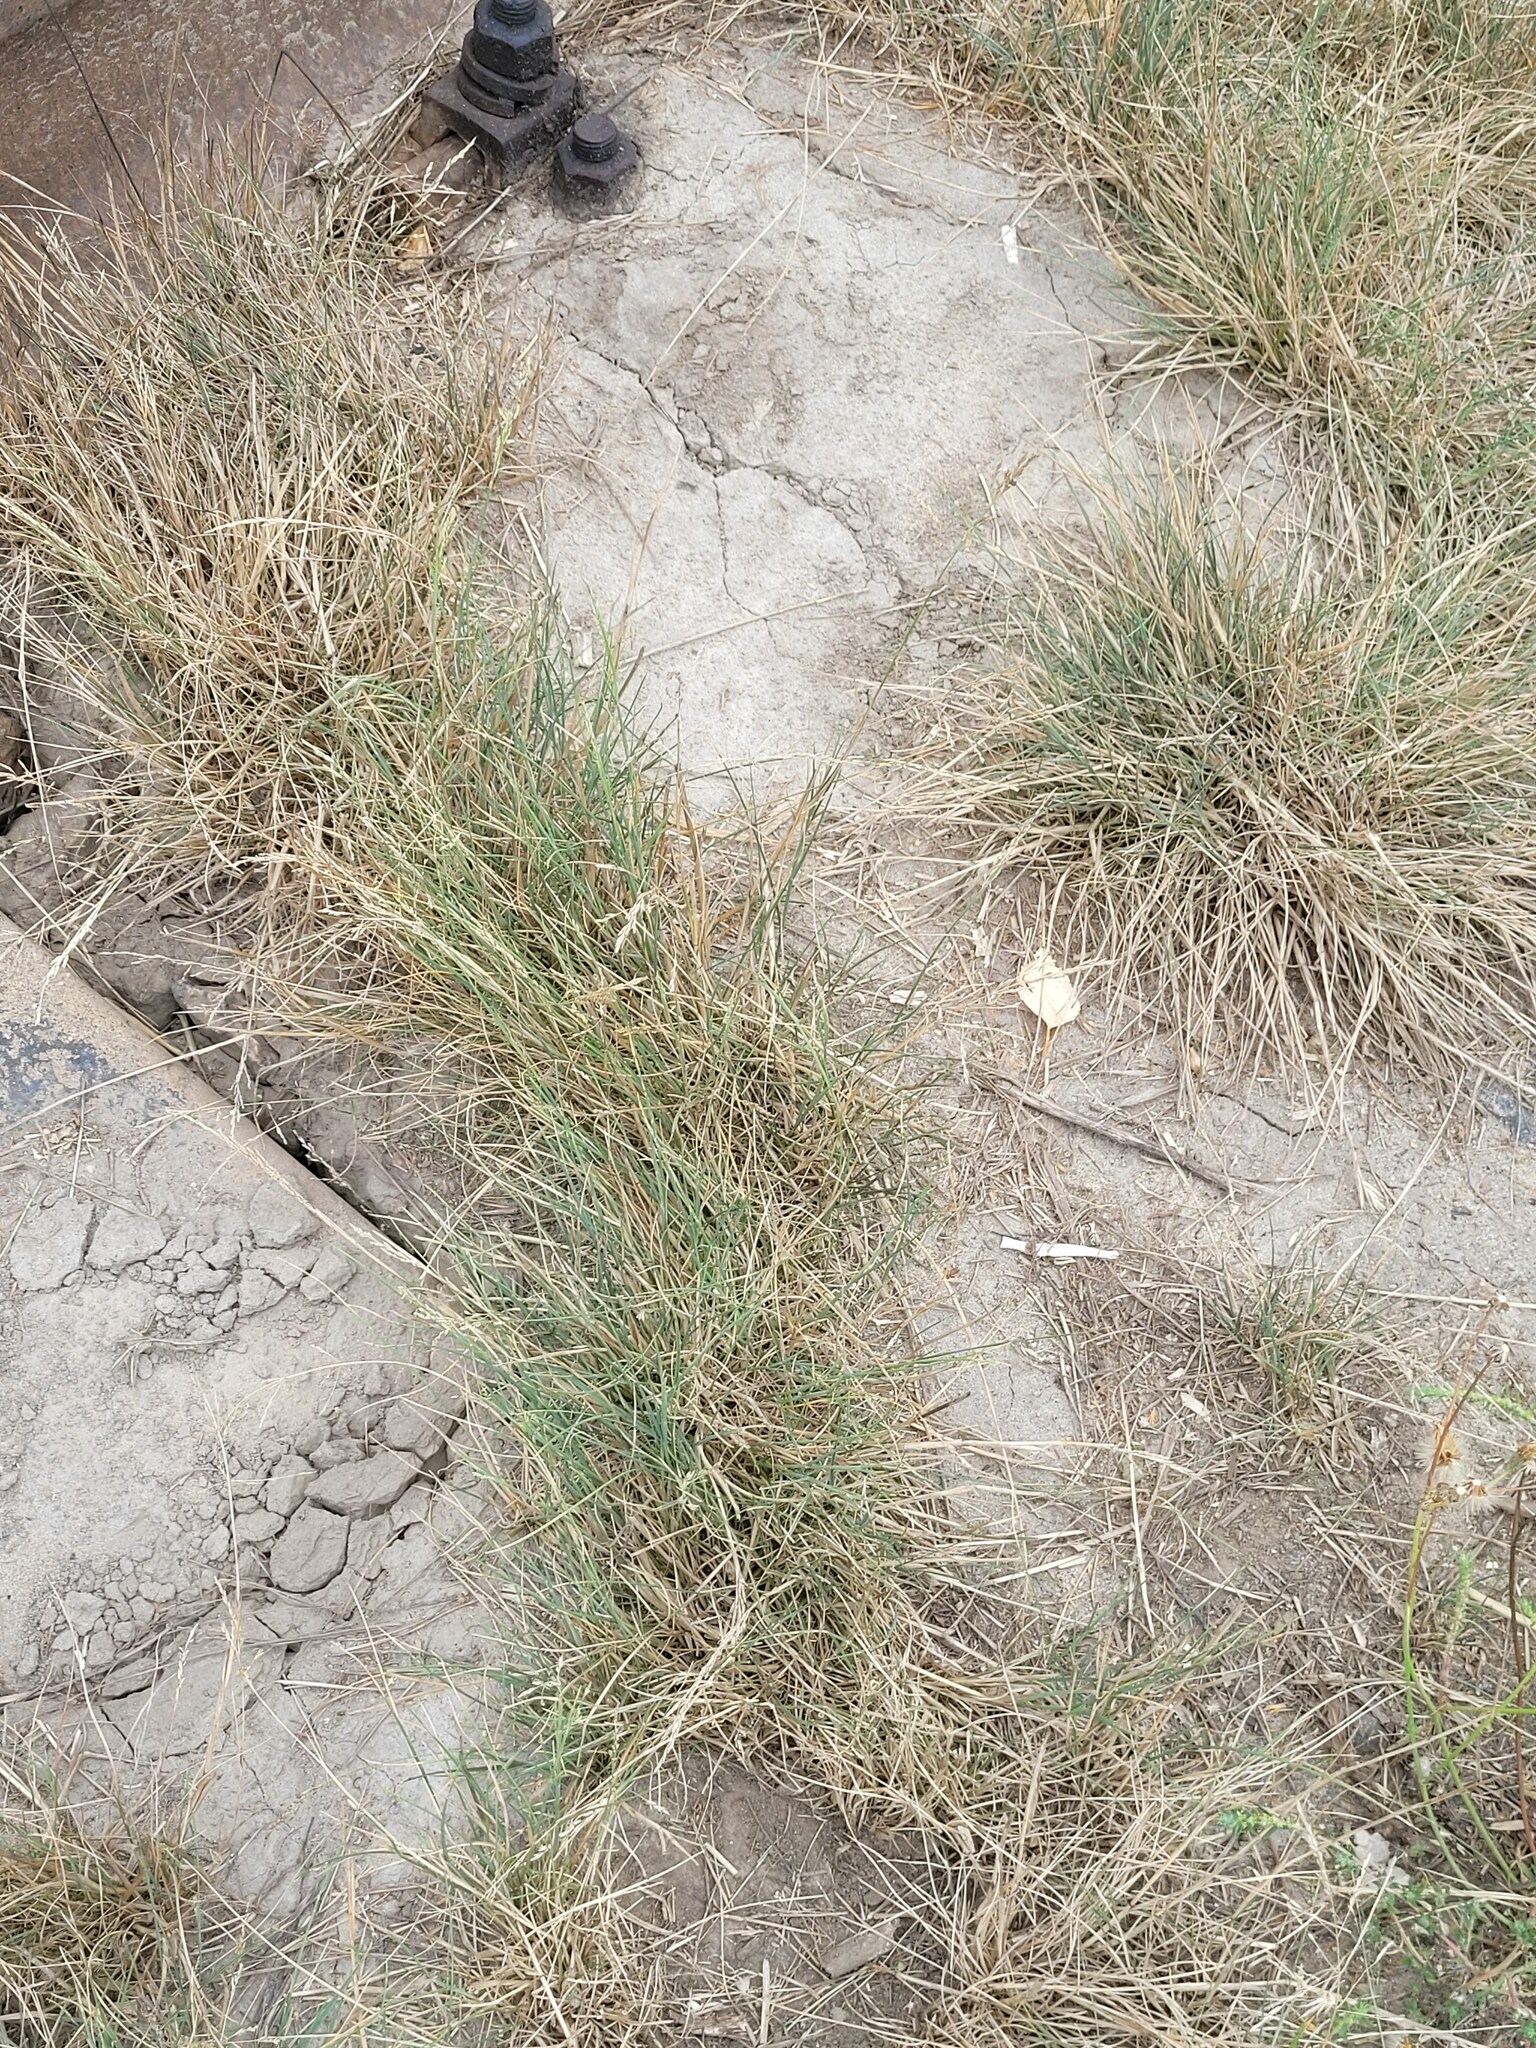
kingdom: Plantae
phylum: Tracheophyta
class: Liliopsida
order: Poales
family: Poaceae
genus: Puccinellia
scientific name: Puccinellia distans
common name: Weeping alkaligrass
